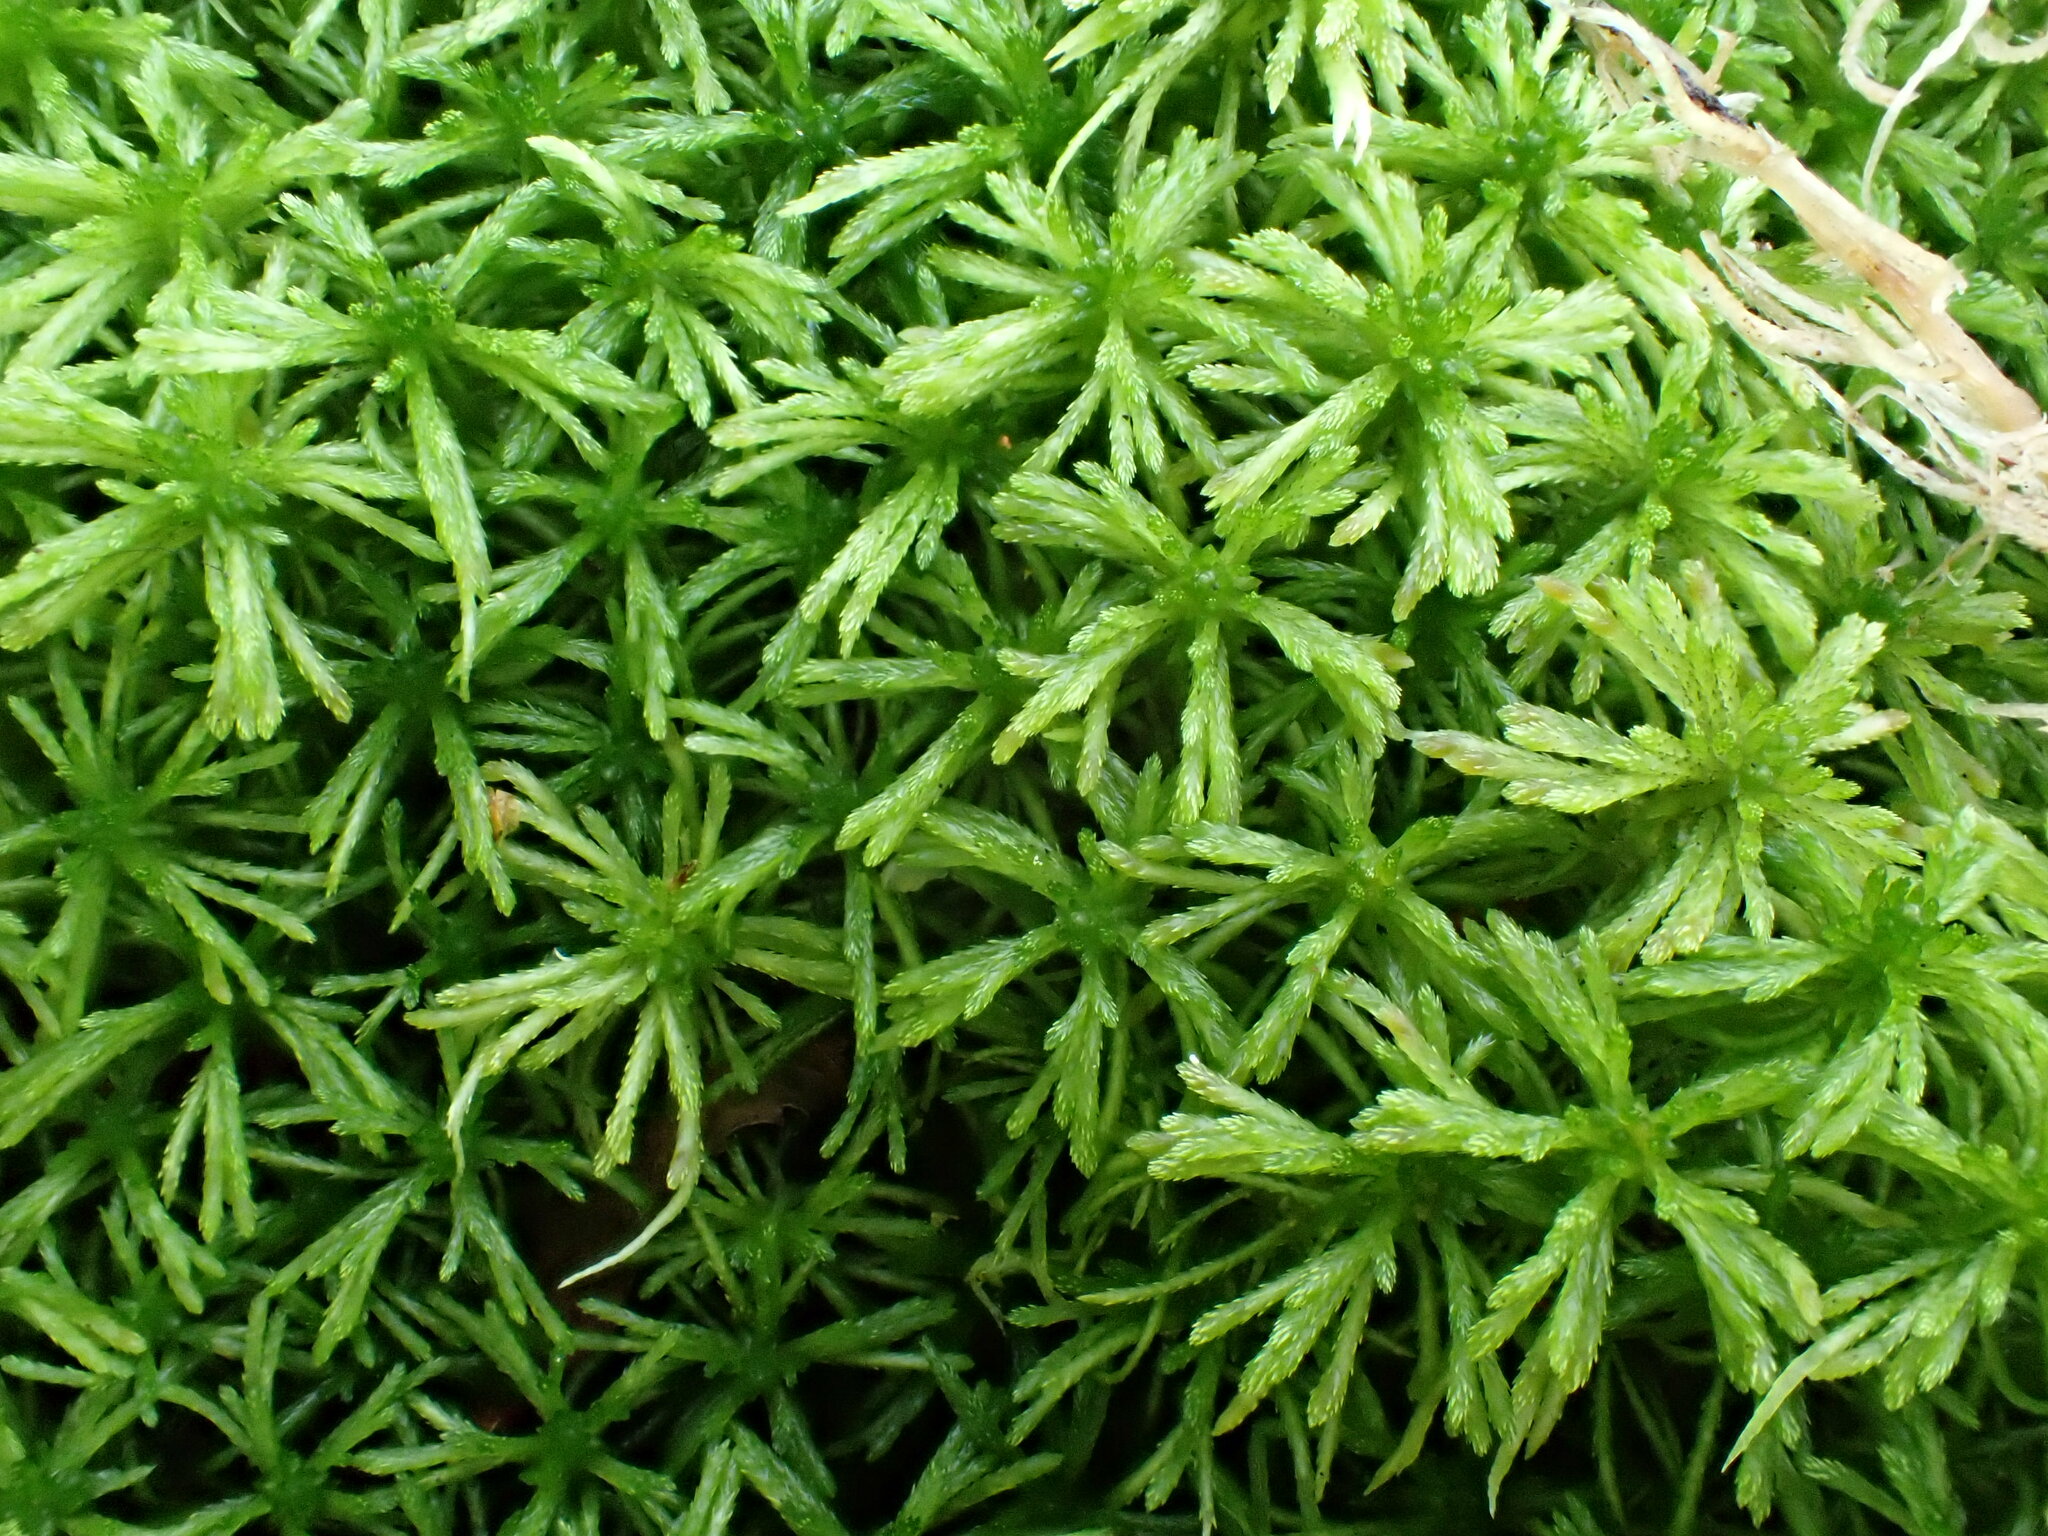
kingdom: Plantae
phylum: Bryophyta
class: Sphagnopsida
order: Sphagnales
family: Sphagnaceae
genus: Sphagnum
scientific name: Sphagnum girgensohnii
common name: Girgensohn's peat moss
